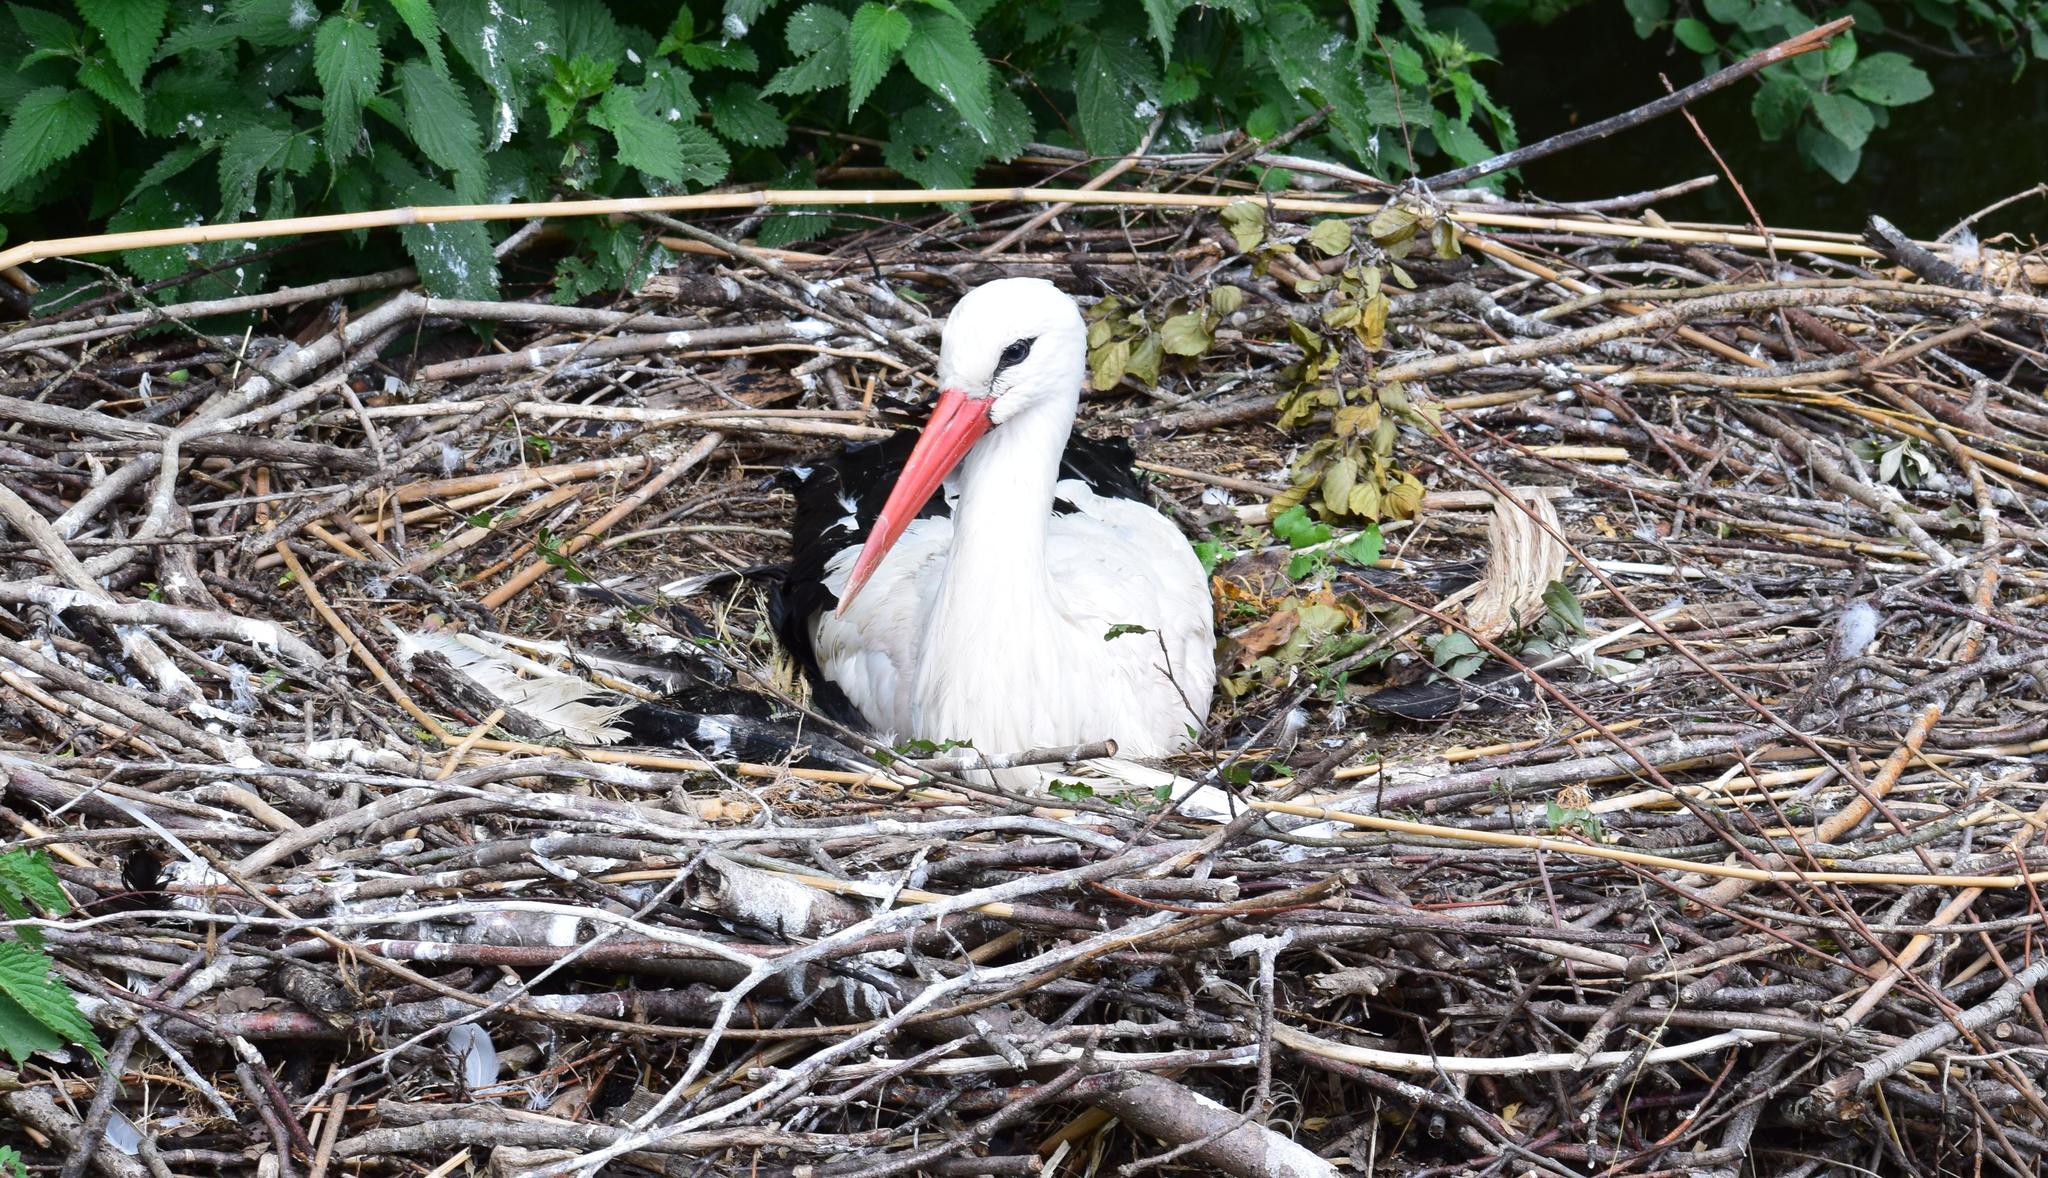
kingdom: Animalia
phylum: Chordata
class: Aves
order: Ciconiiformes
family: Ciconiidae
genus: Ciconia
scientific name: Ciconia ciconia
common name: White stork
